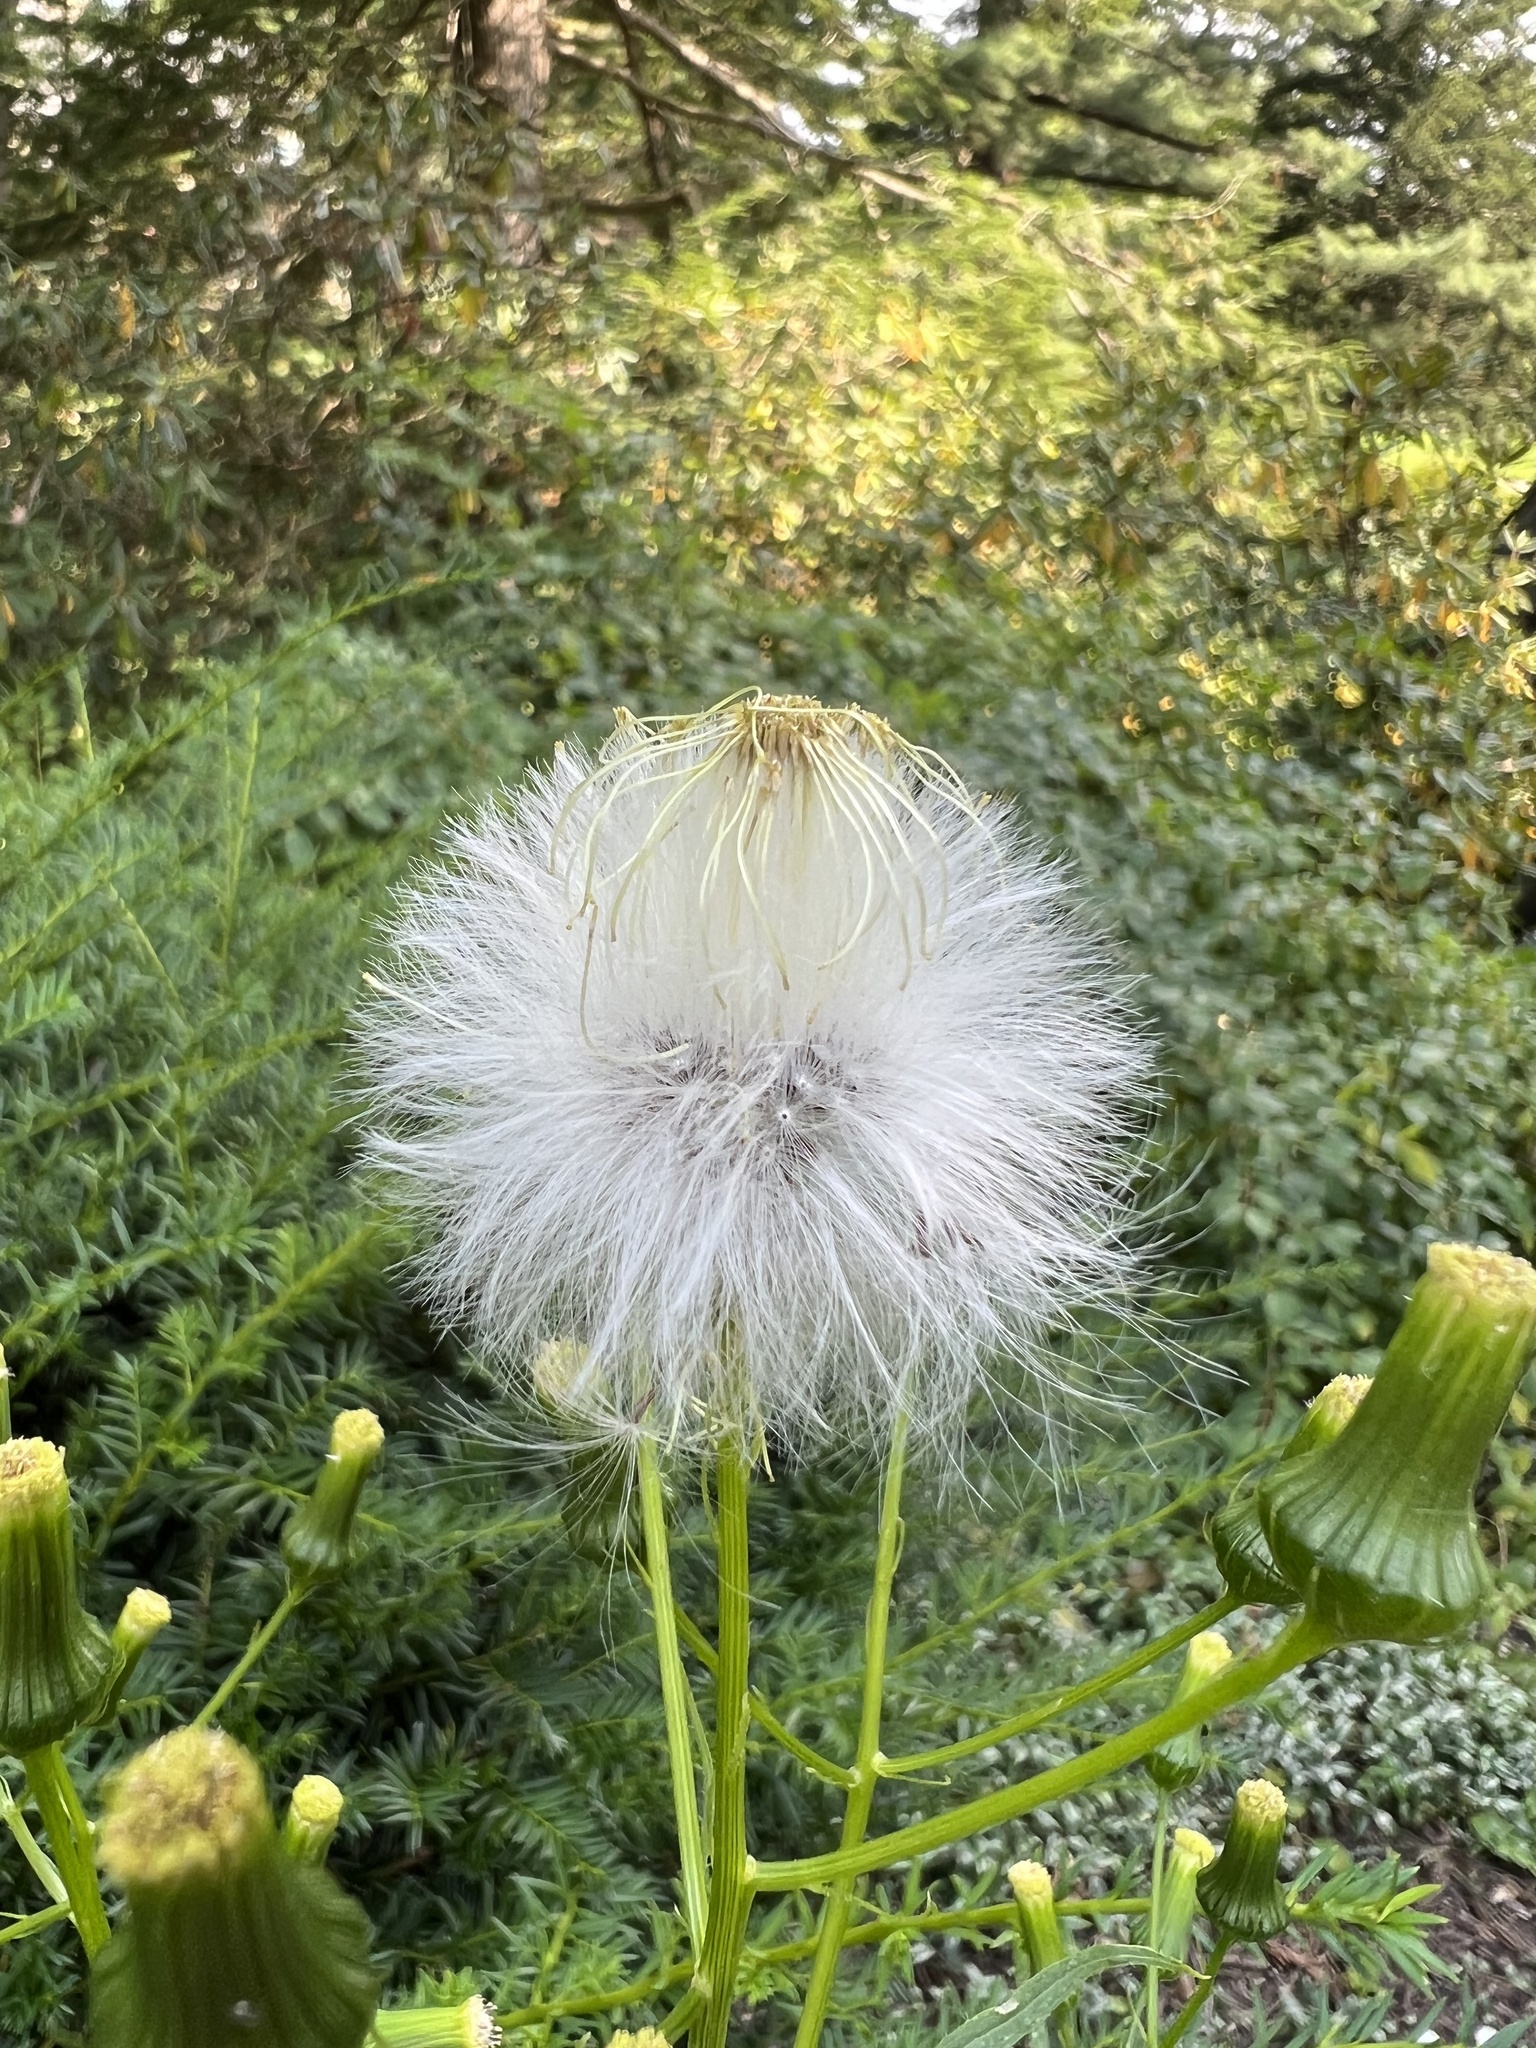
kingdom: Plantae
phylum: Tracheophyta
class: Magnoliopsida
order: Asterales
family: Asteraceae
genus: Erechtites
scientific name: Erechtites hieraciifolius
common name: American burnweed
